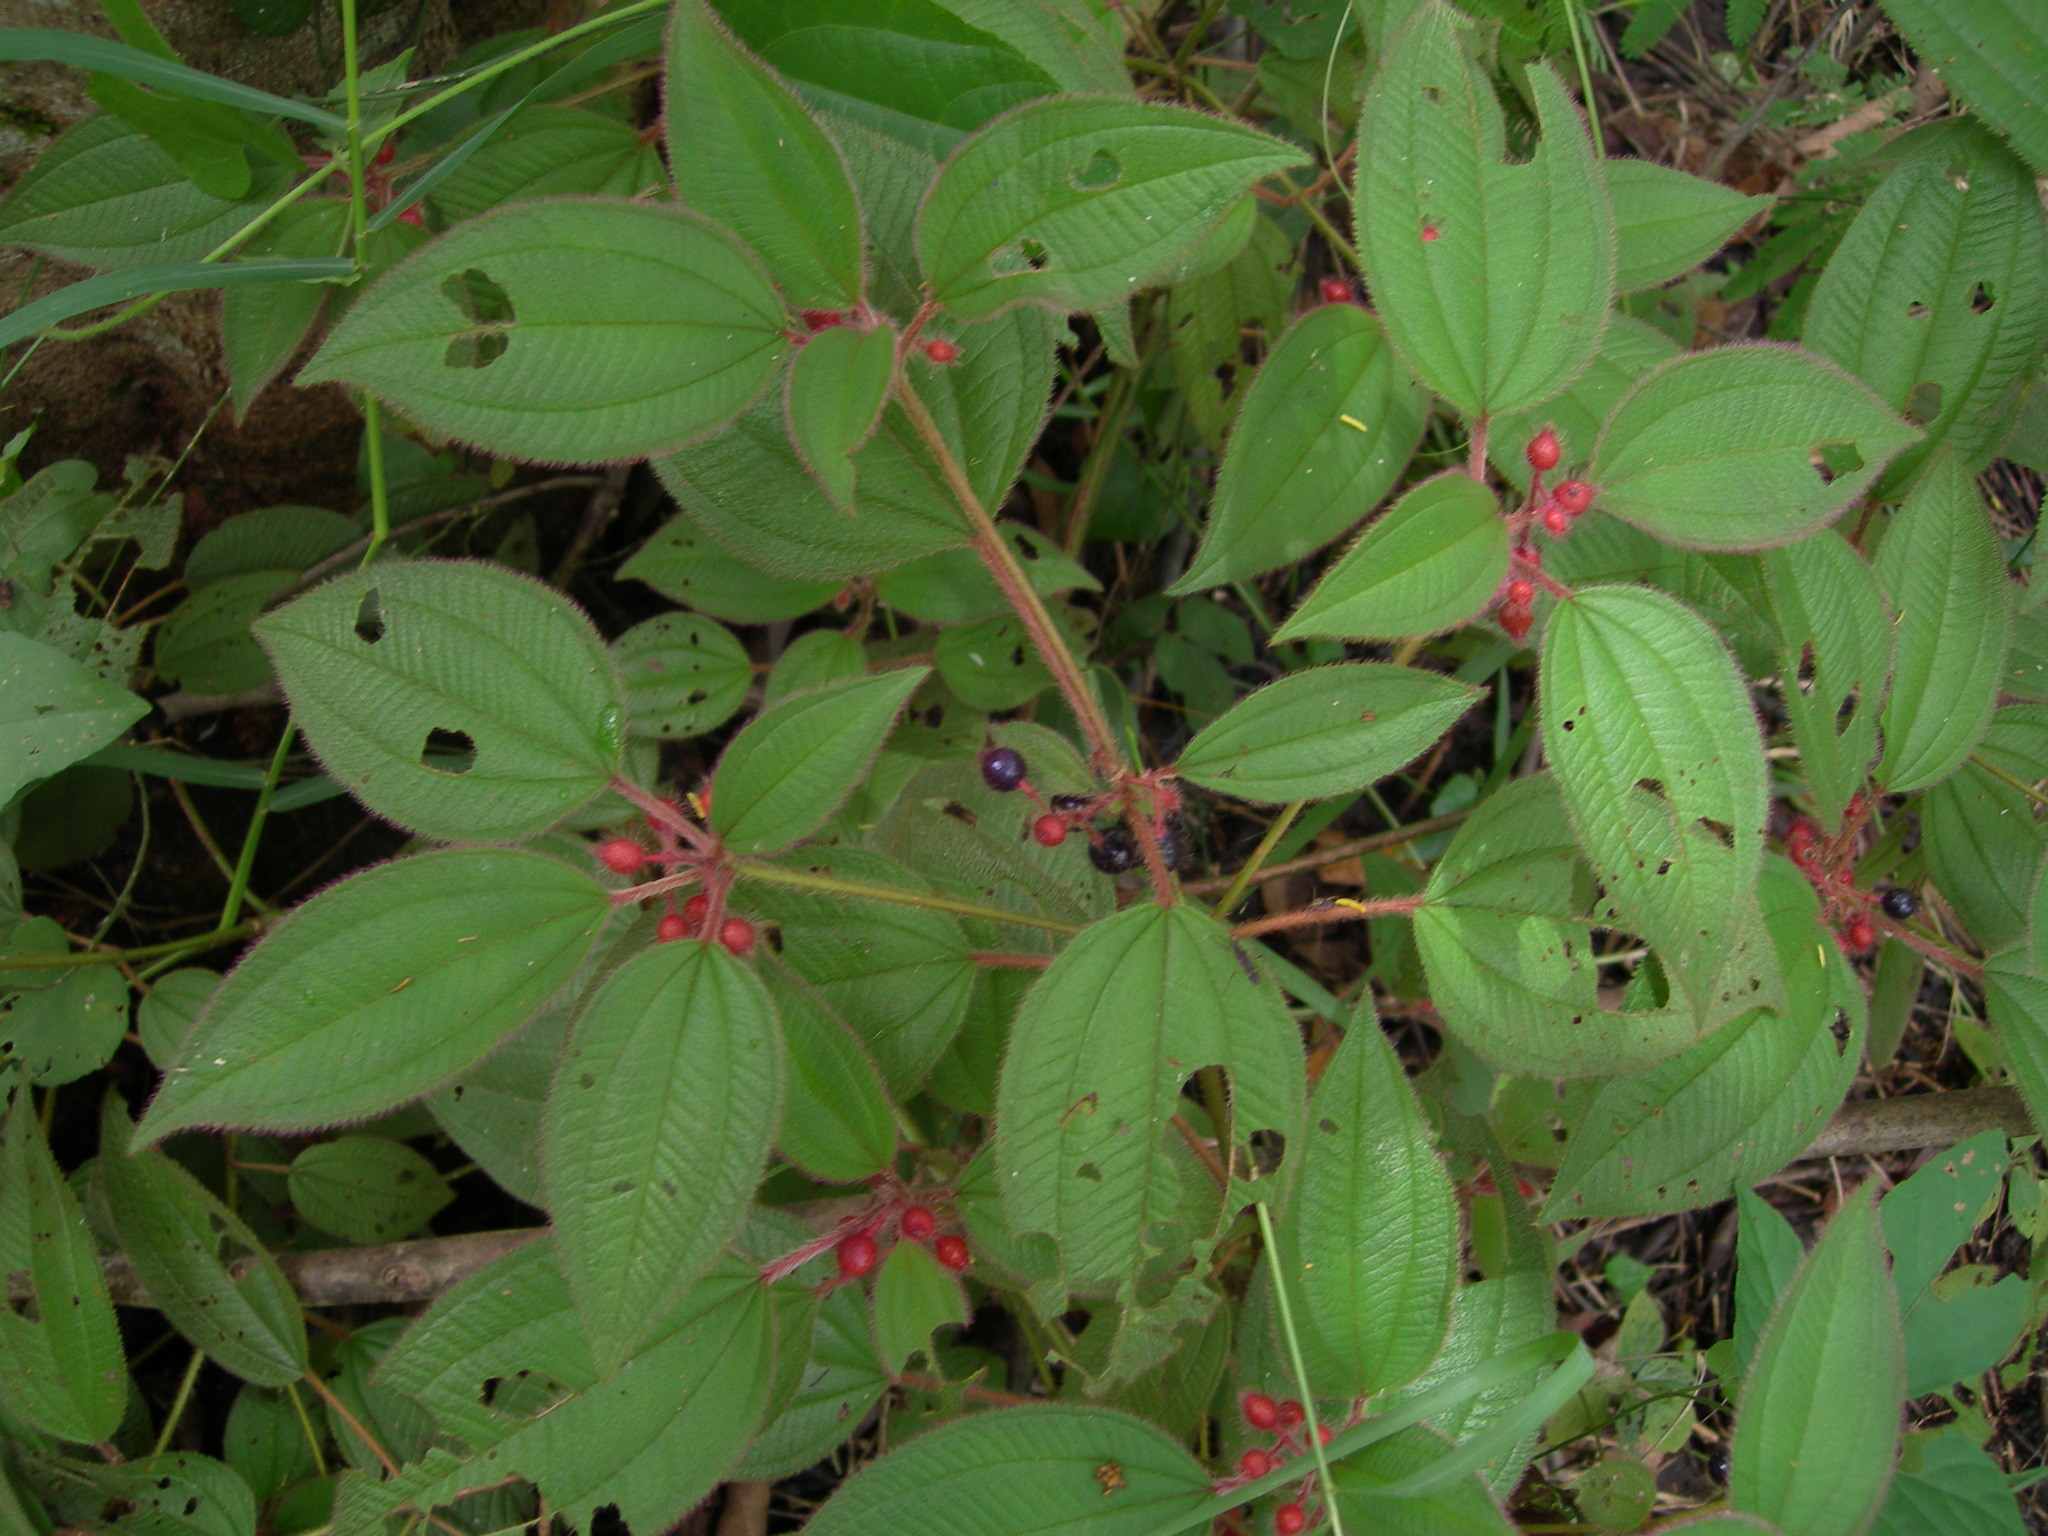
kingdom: Plantae
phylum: Tracheophyta
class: Magnoliopsida
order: Myrtales
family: Melastomataceae
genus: Miconia
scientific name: Miconia petiolaris
